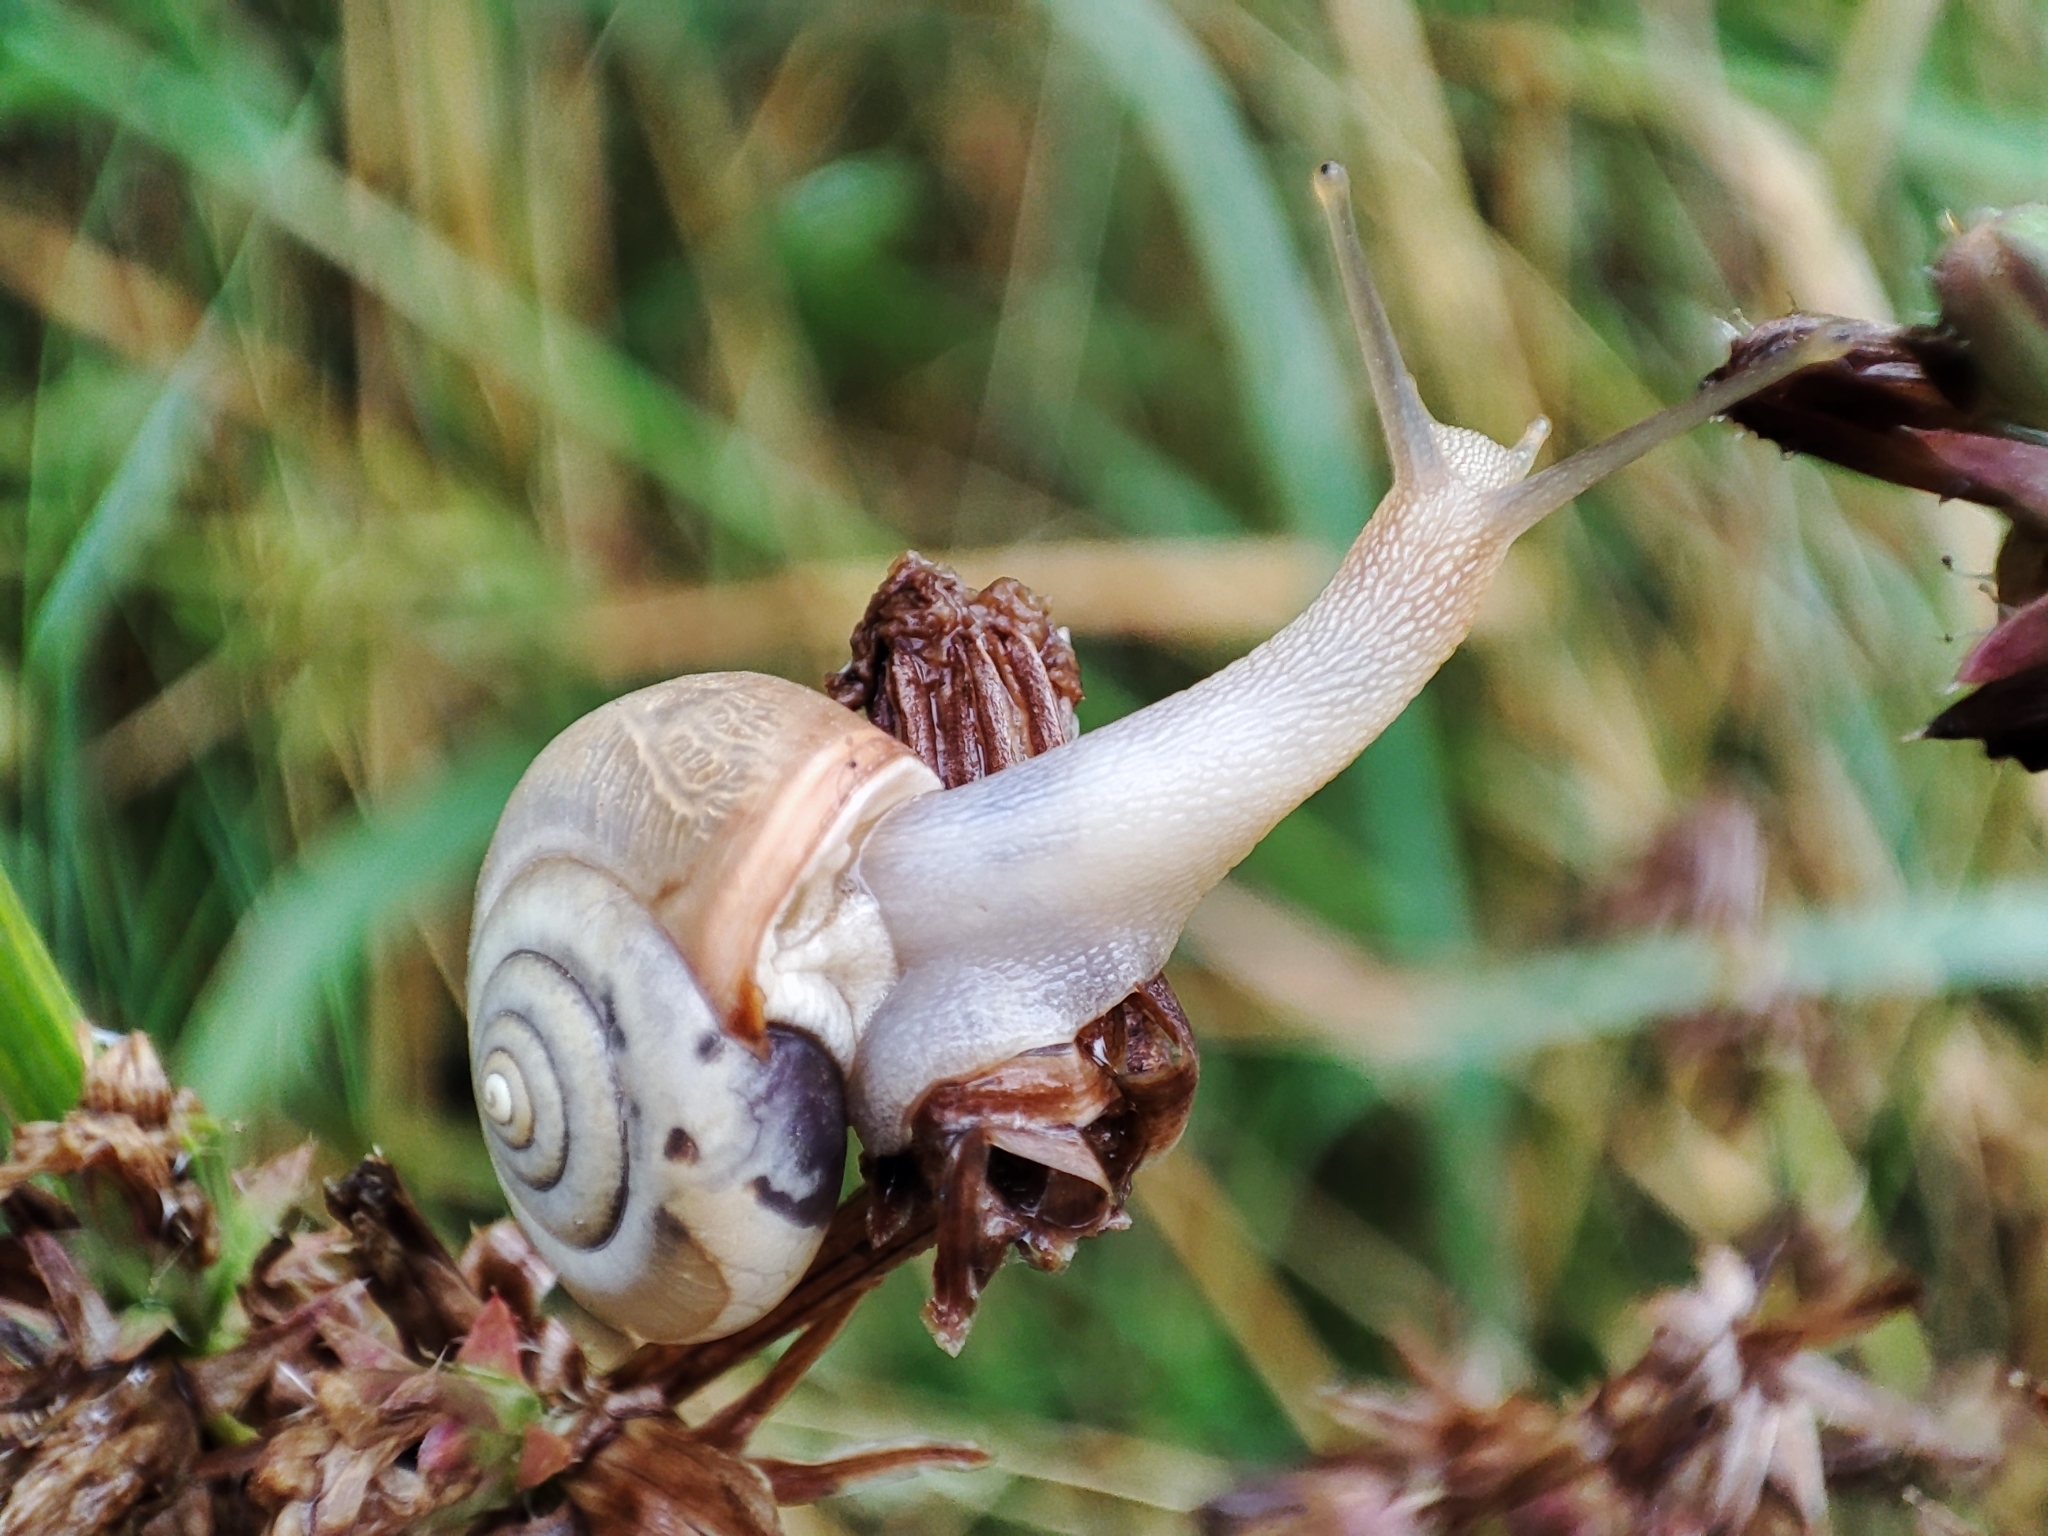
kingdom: Animalia
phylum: Mollusca
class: Gastropoda
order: Stylommatophora
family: Hygromiidae
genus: Monacha
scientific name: Monacha cartusiana
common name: Carthusian snail
